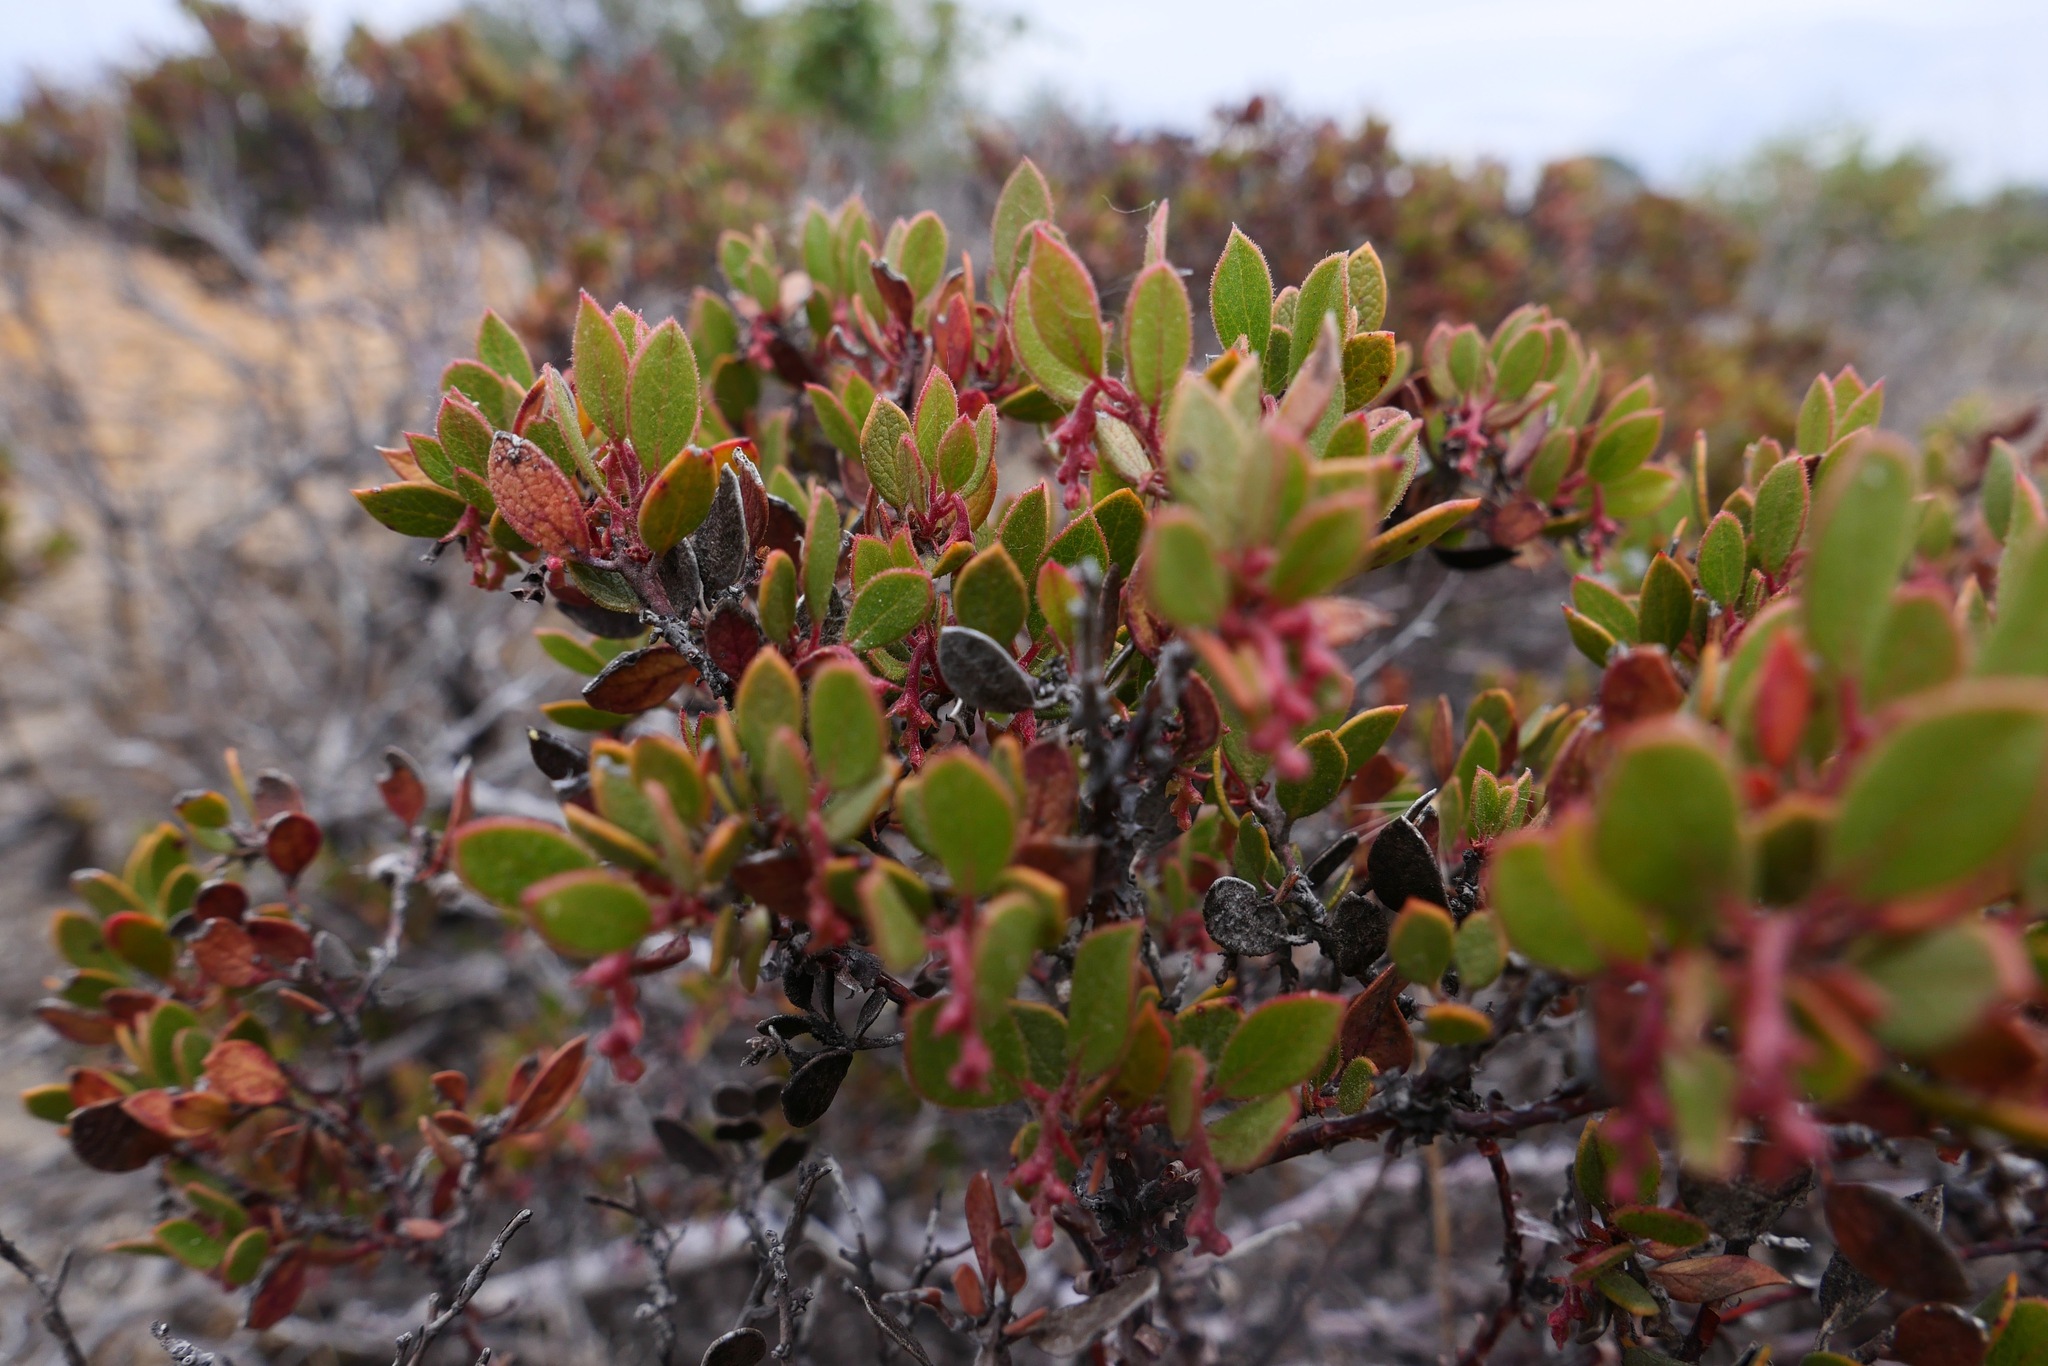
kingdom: Plantae
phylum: Tracheophyta
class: Magnoliopsida
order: Ericales
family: Ericaceae
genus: Arctostaphylos
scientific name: Arctostaphylos myrtifolia
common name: Ione manzanita
